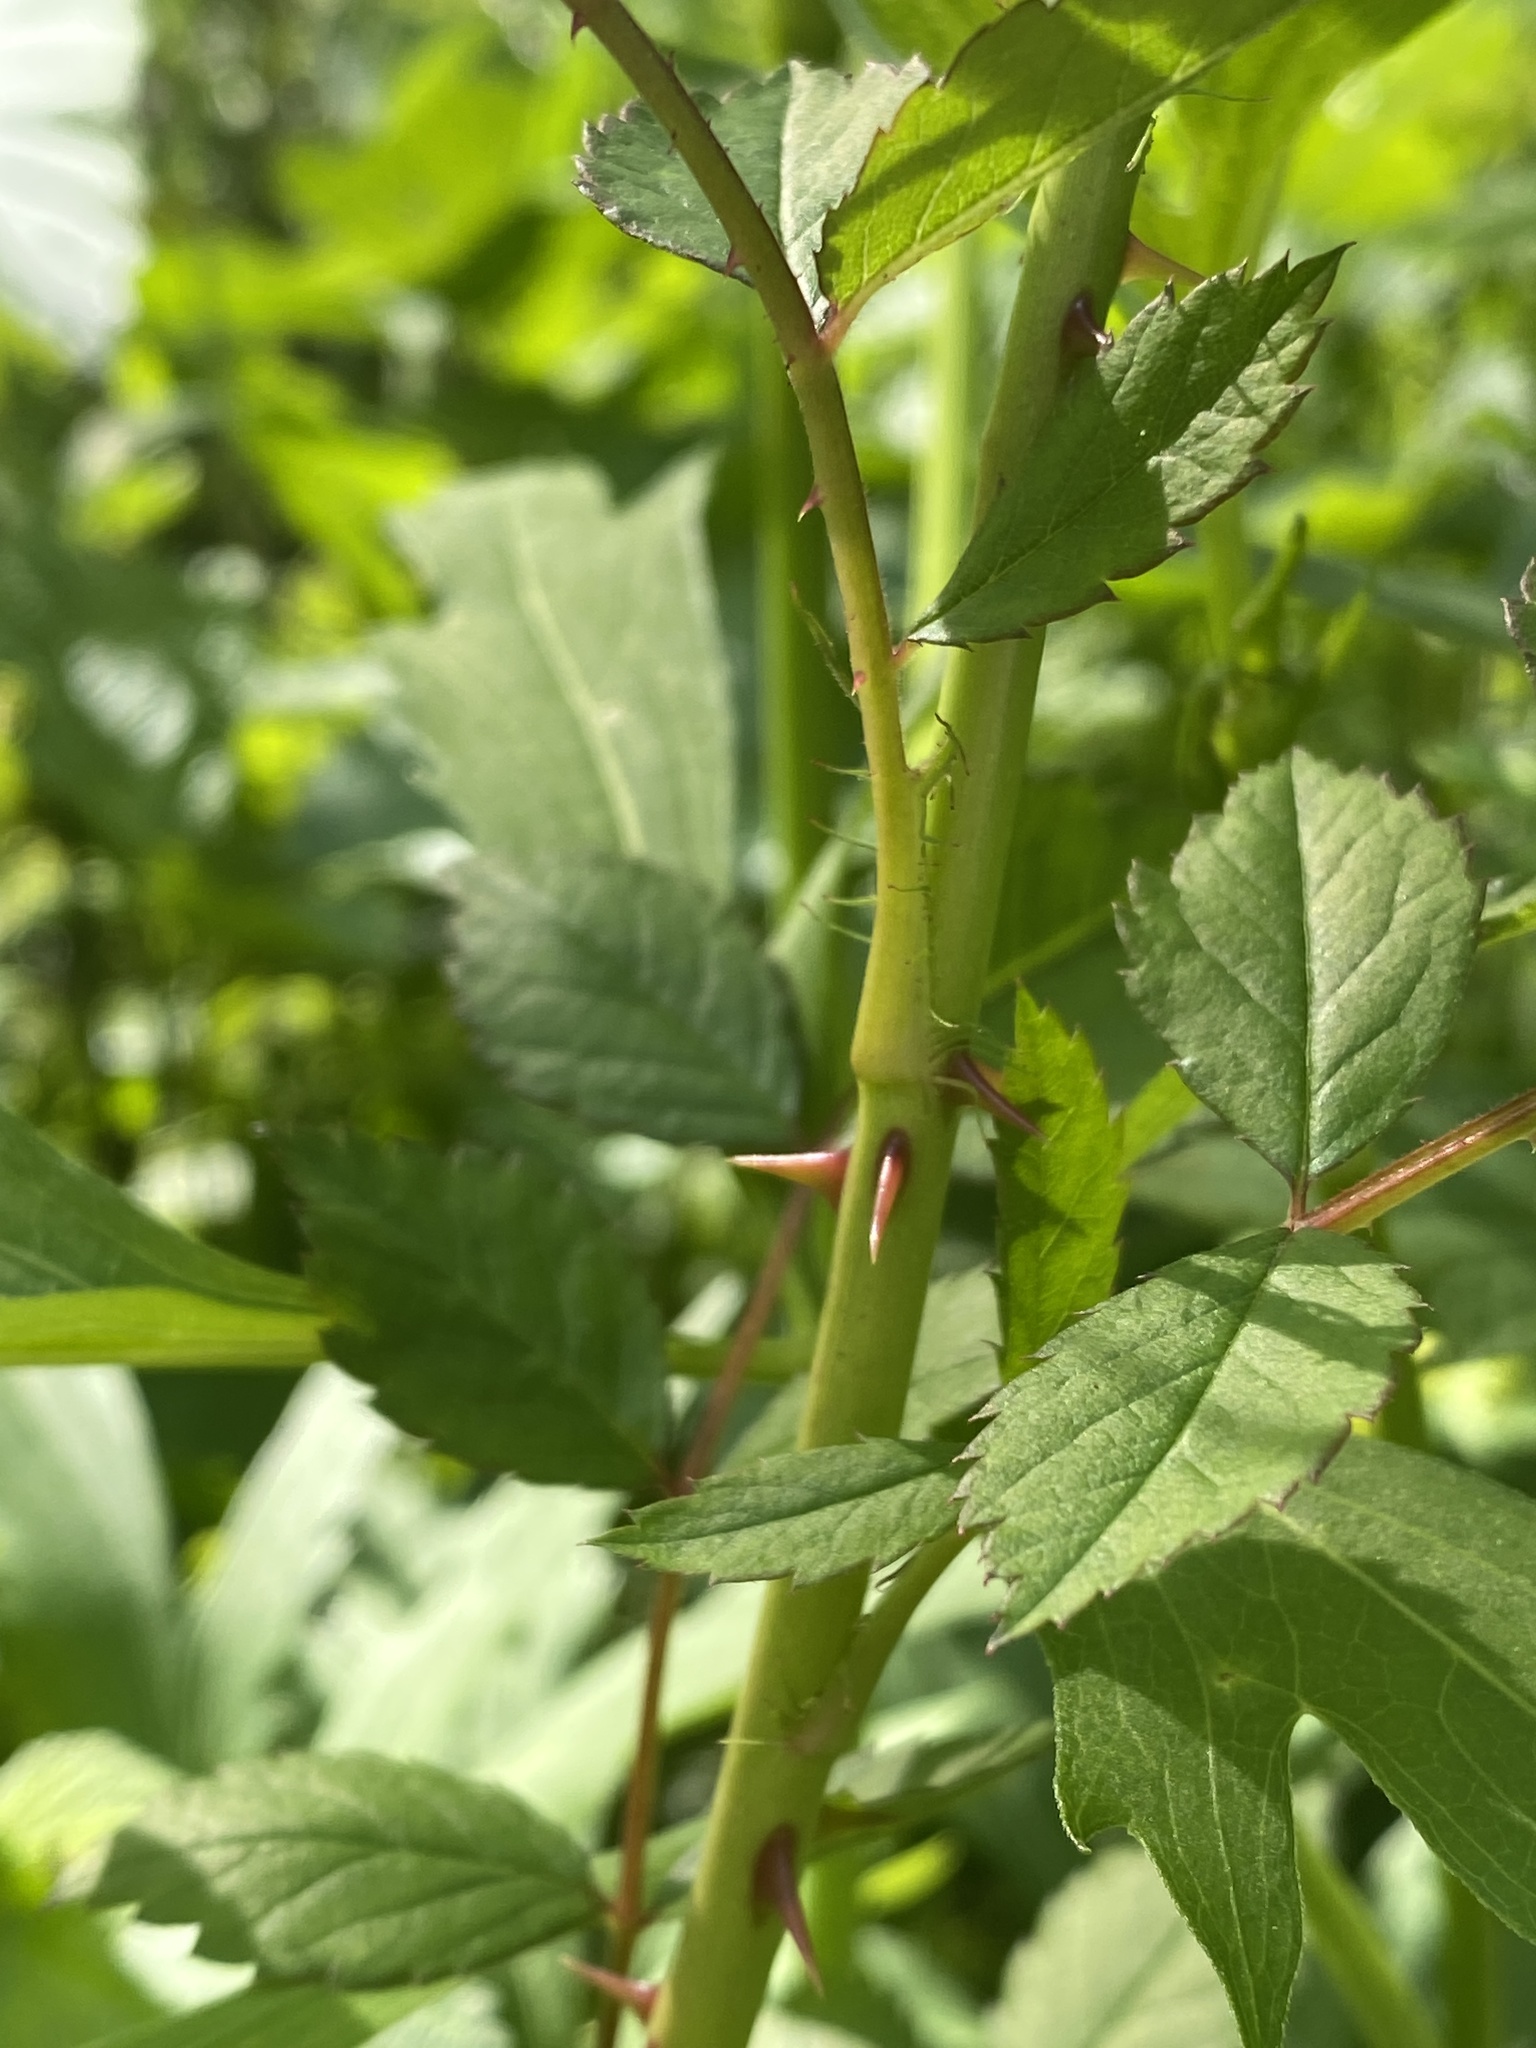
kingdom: Plantae
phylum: Tracheophyta
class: Magnoliopsida
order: Rosales
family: Rosaceae
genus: Rosa
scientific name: Rosa multiflora
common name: Multiflora rose
